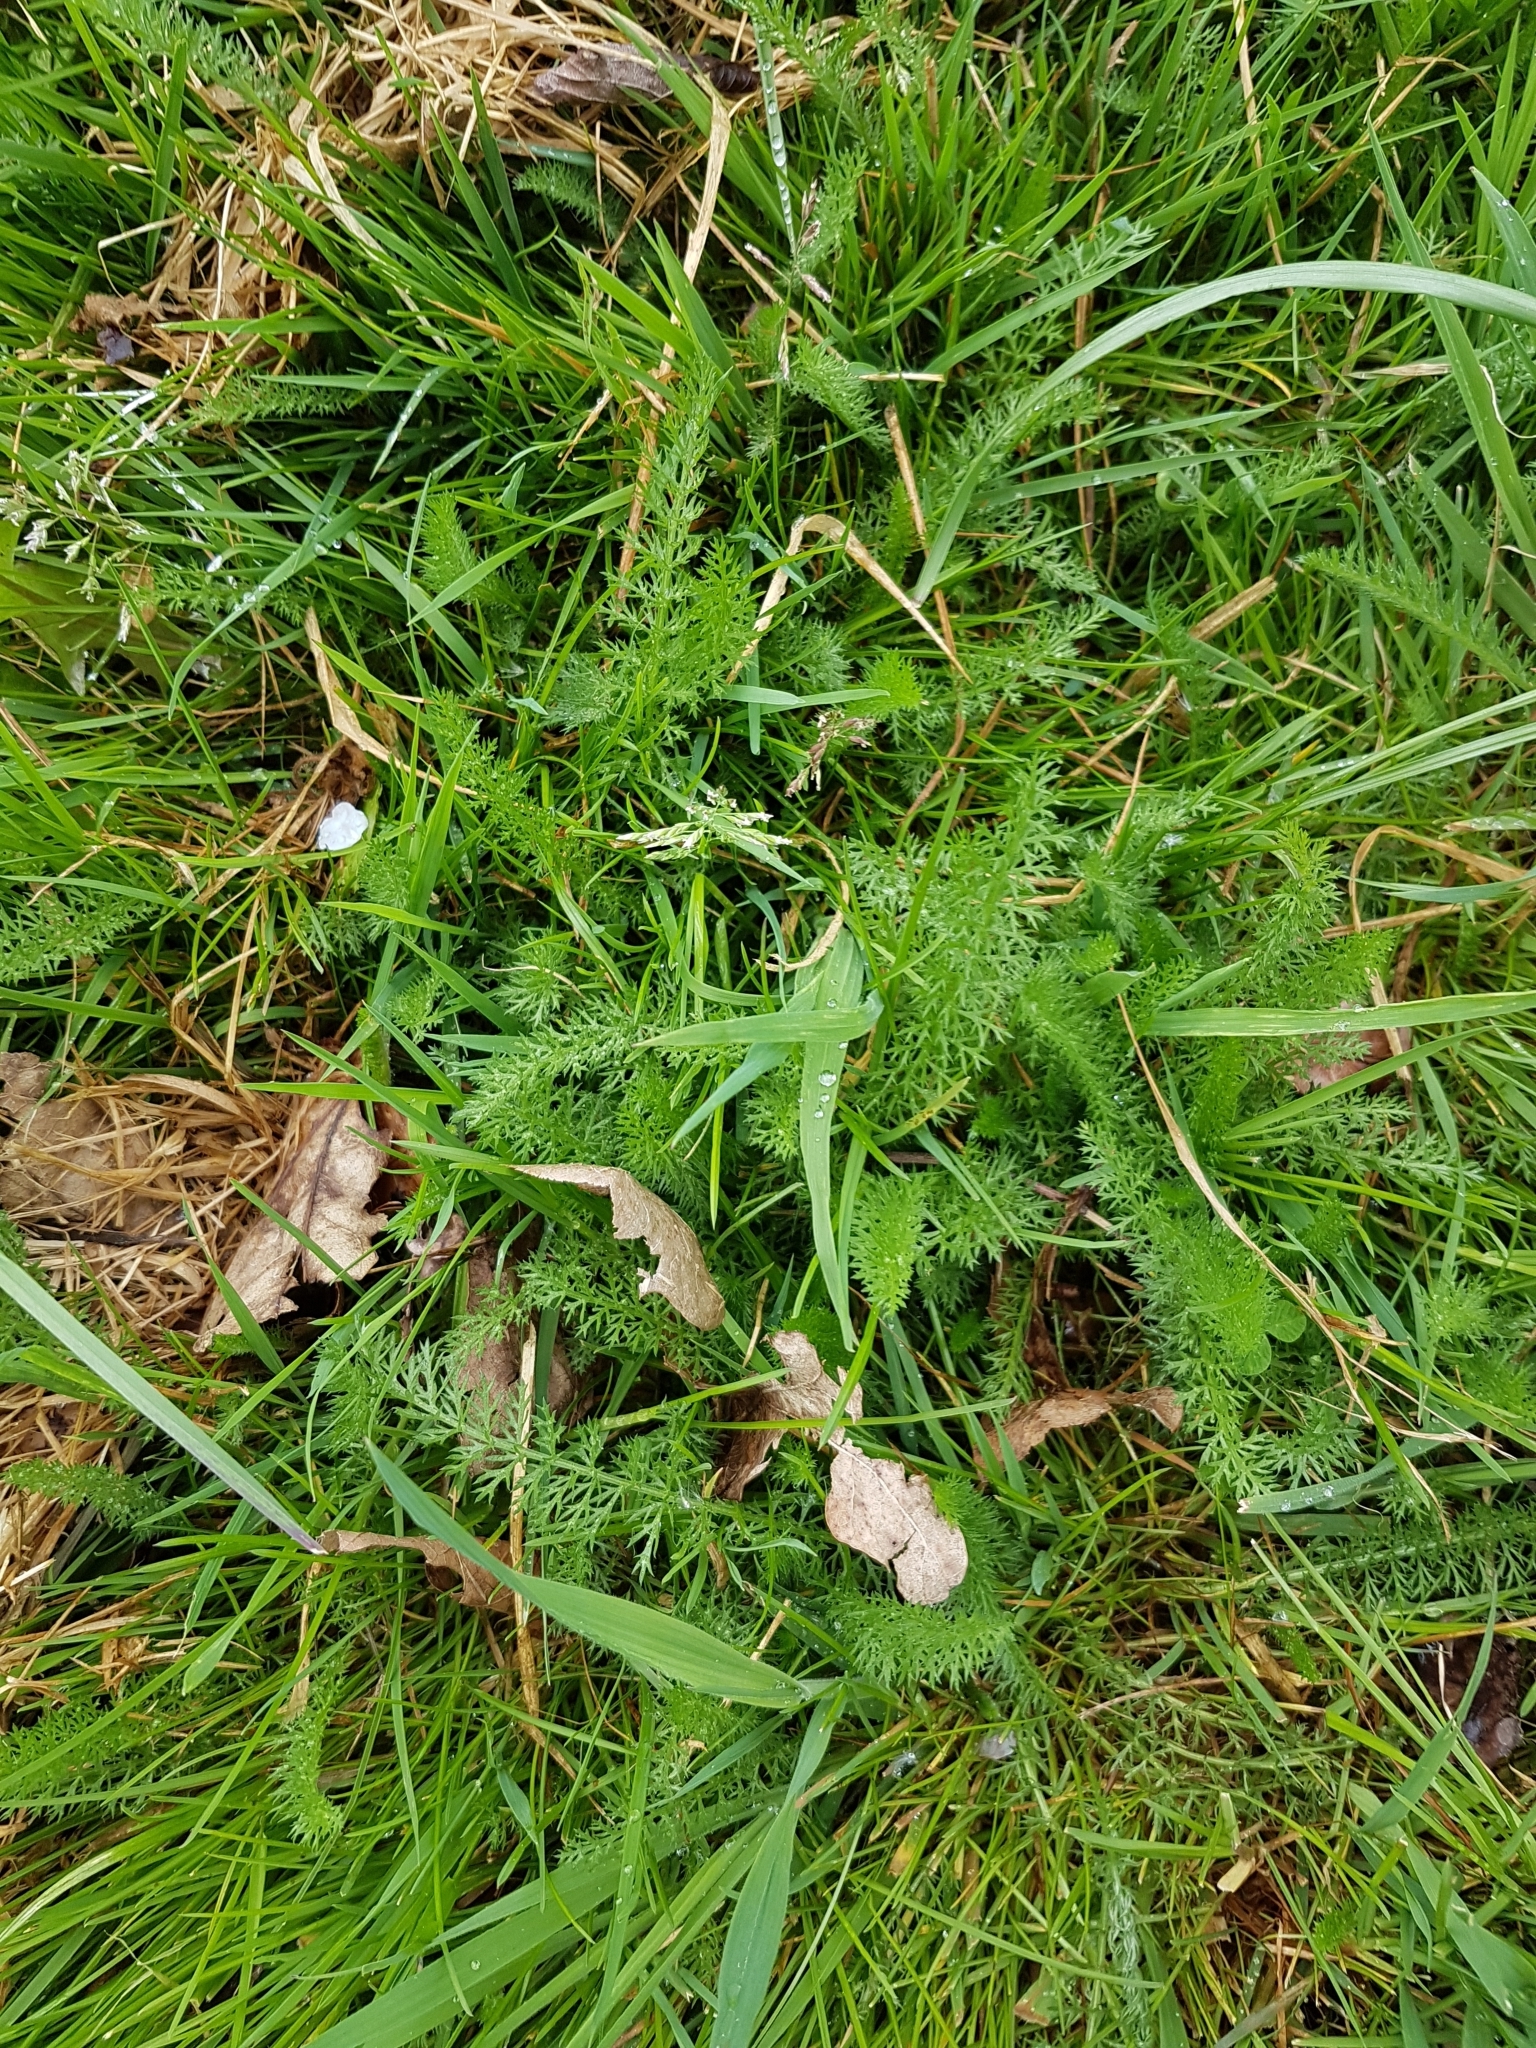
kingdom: Plantae
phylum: Tracheophyta
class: Magnoliopsida
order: Asterales
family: Asteraceae
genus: Achillea
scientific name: Achillea millefolium
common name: Yarrow
